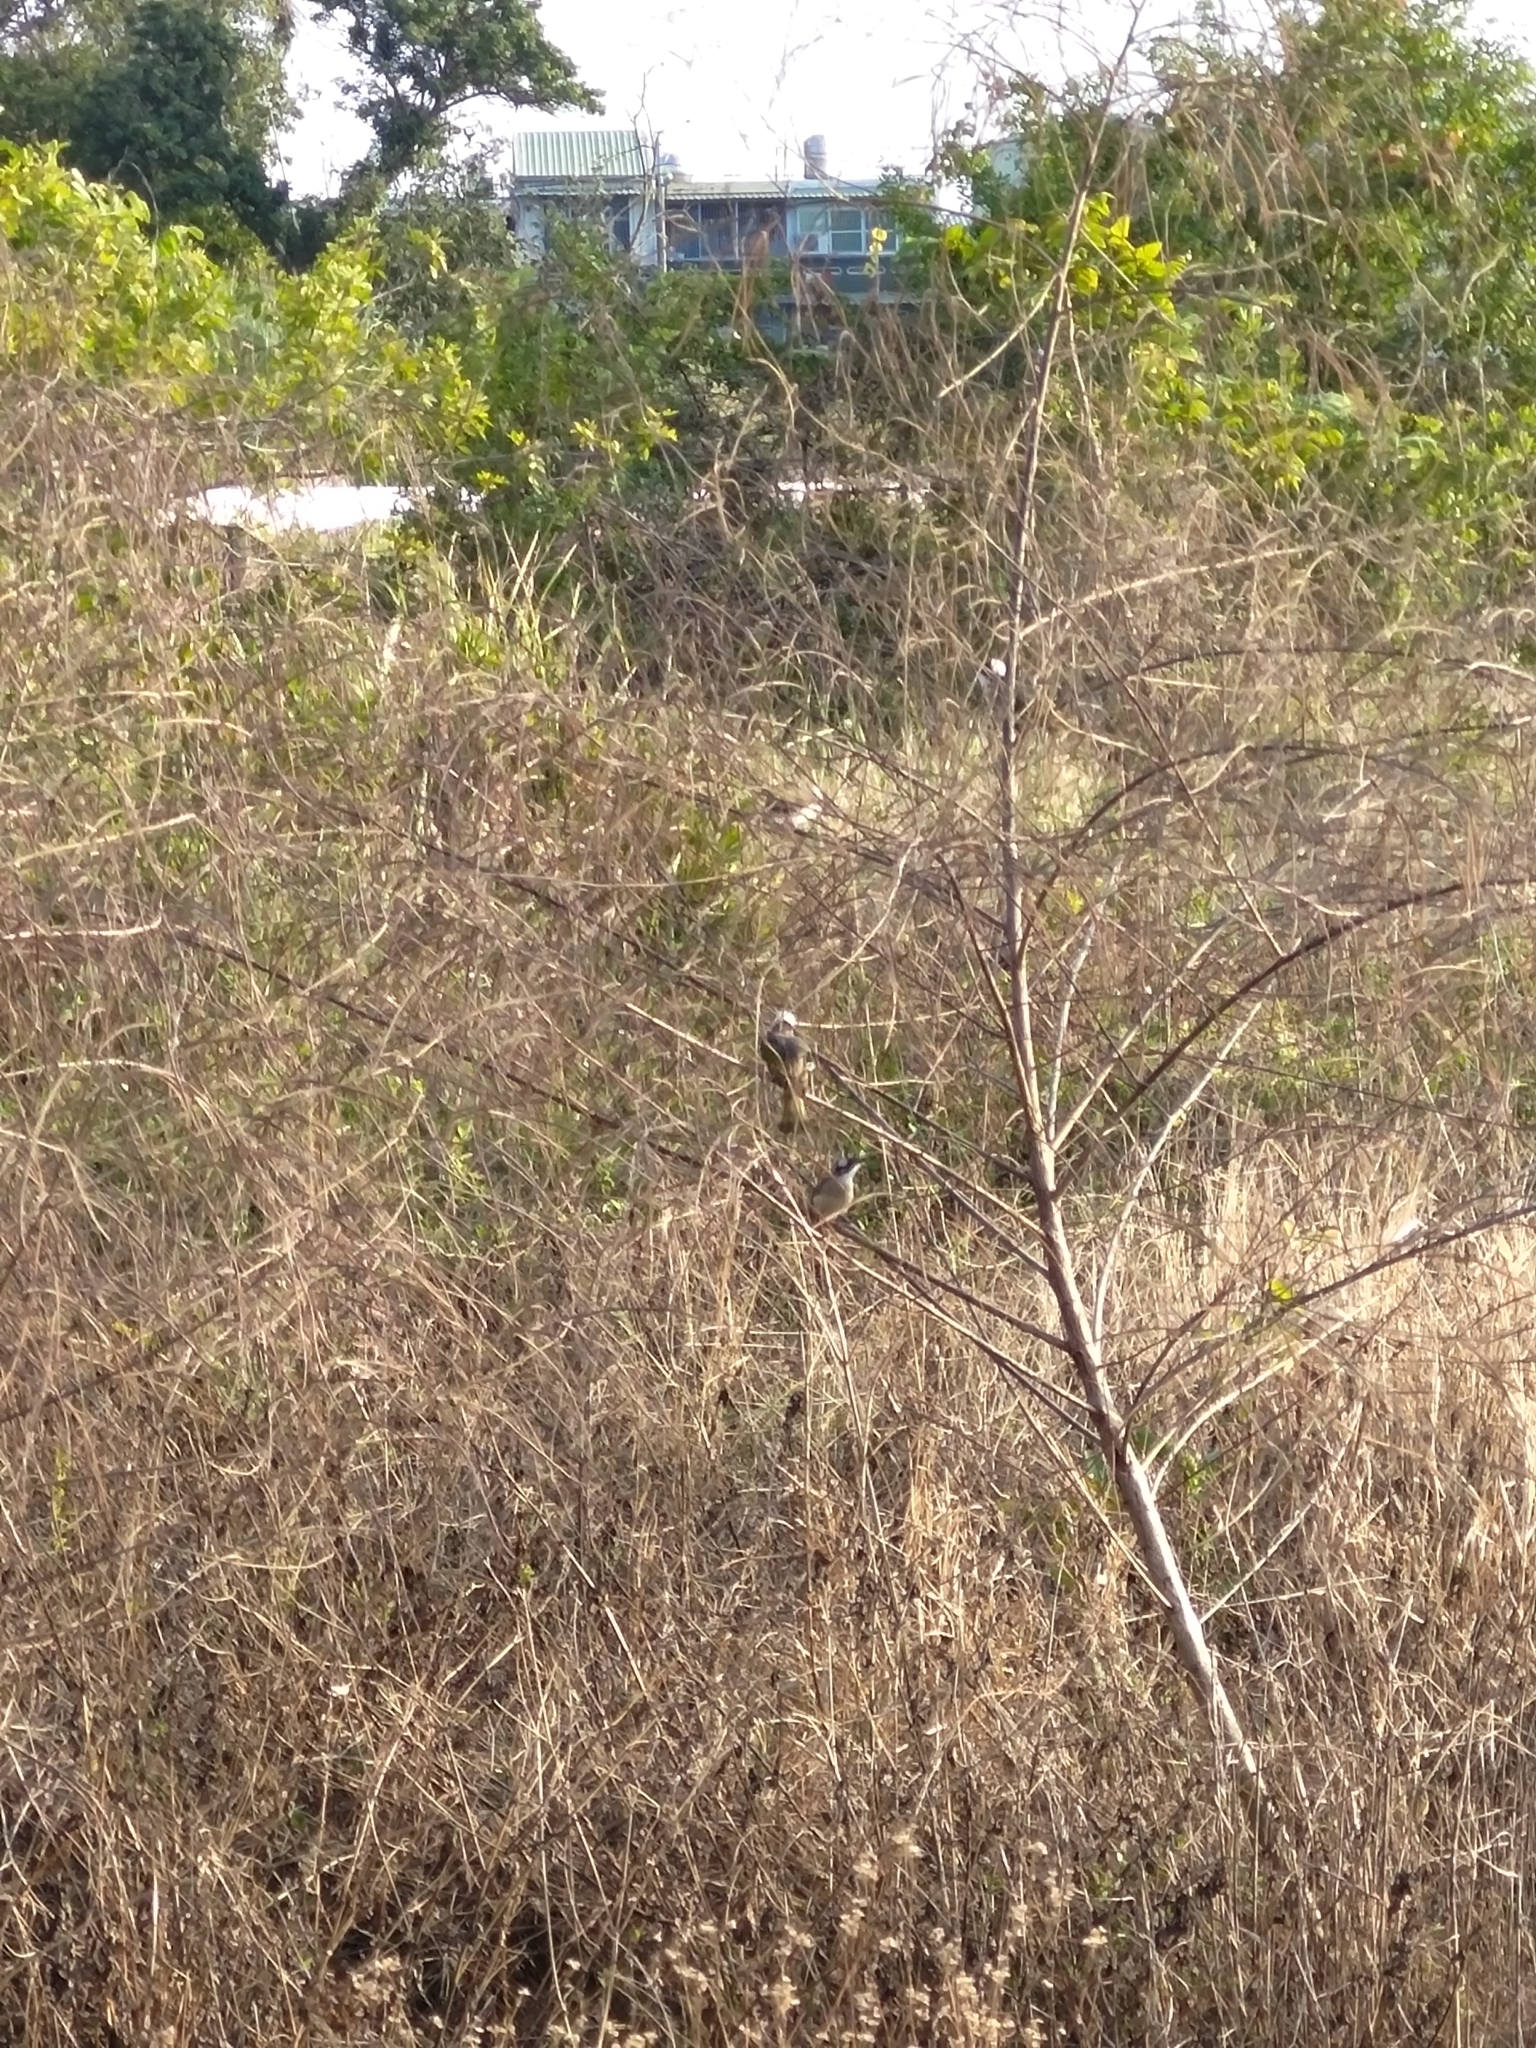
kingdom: Animalia
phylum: Chordata
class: Aves
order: Passeriformes
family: Pycnonotidae
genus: Pycnonotus
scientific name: Pycnonotus sinensis
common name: Light-vented bulbul
